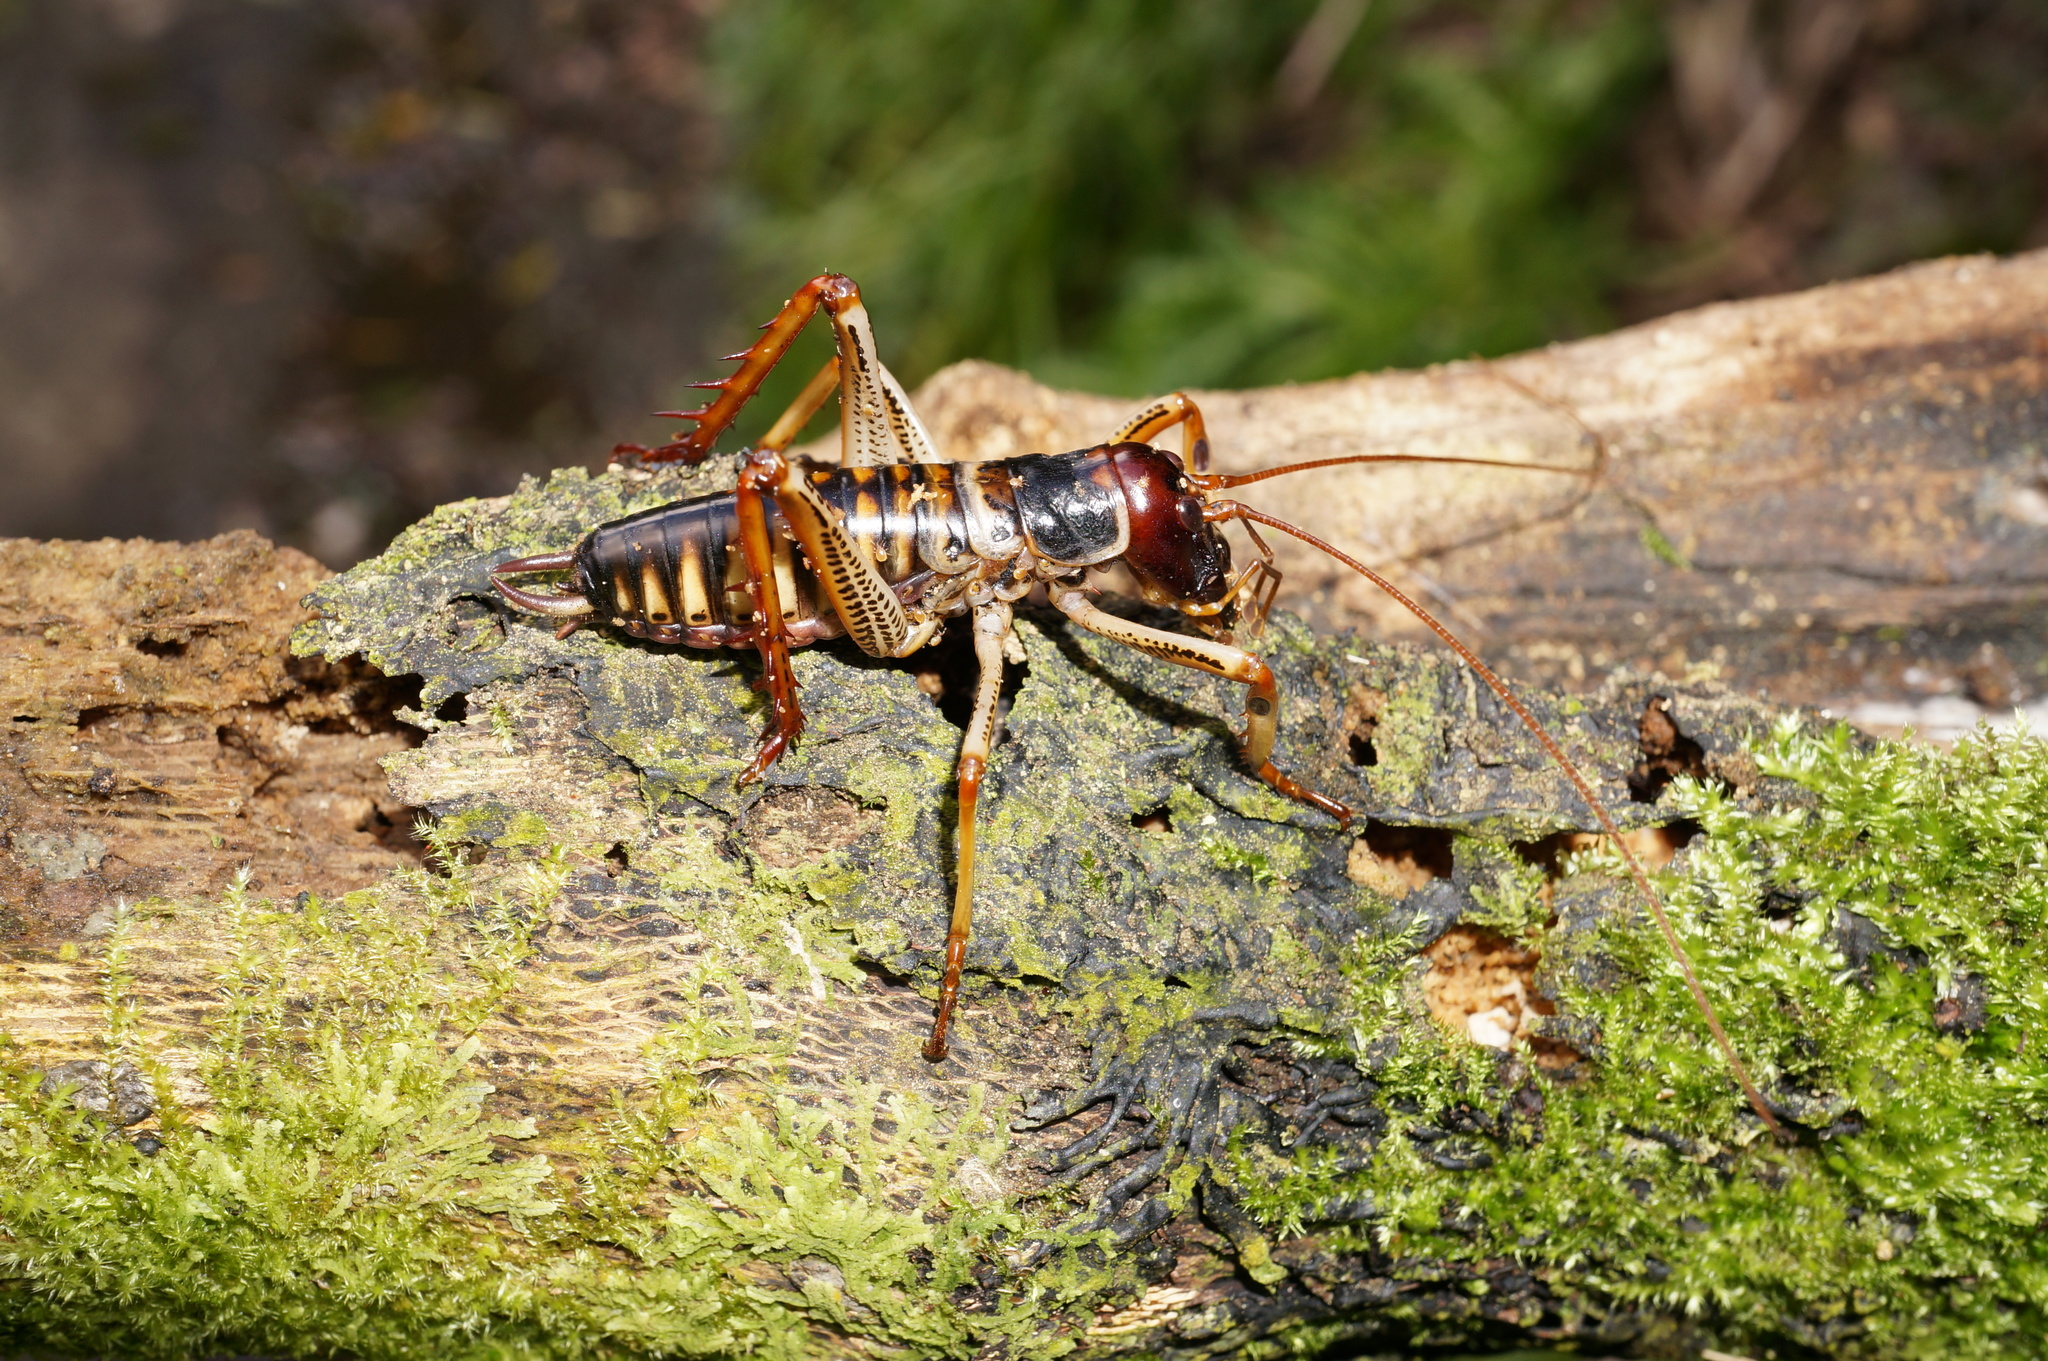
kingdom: Animalia
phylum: Arthropoda
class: Insecta
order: Orthoptera
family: Anostostomatidae
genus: Hemideina
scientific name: Hemideina crassidens
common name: Wellington tree weta
